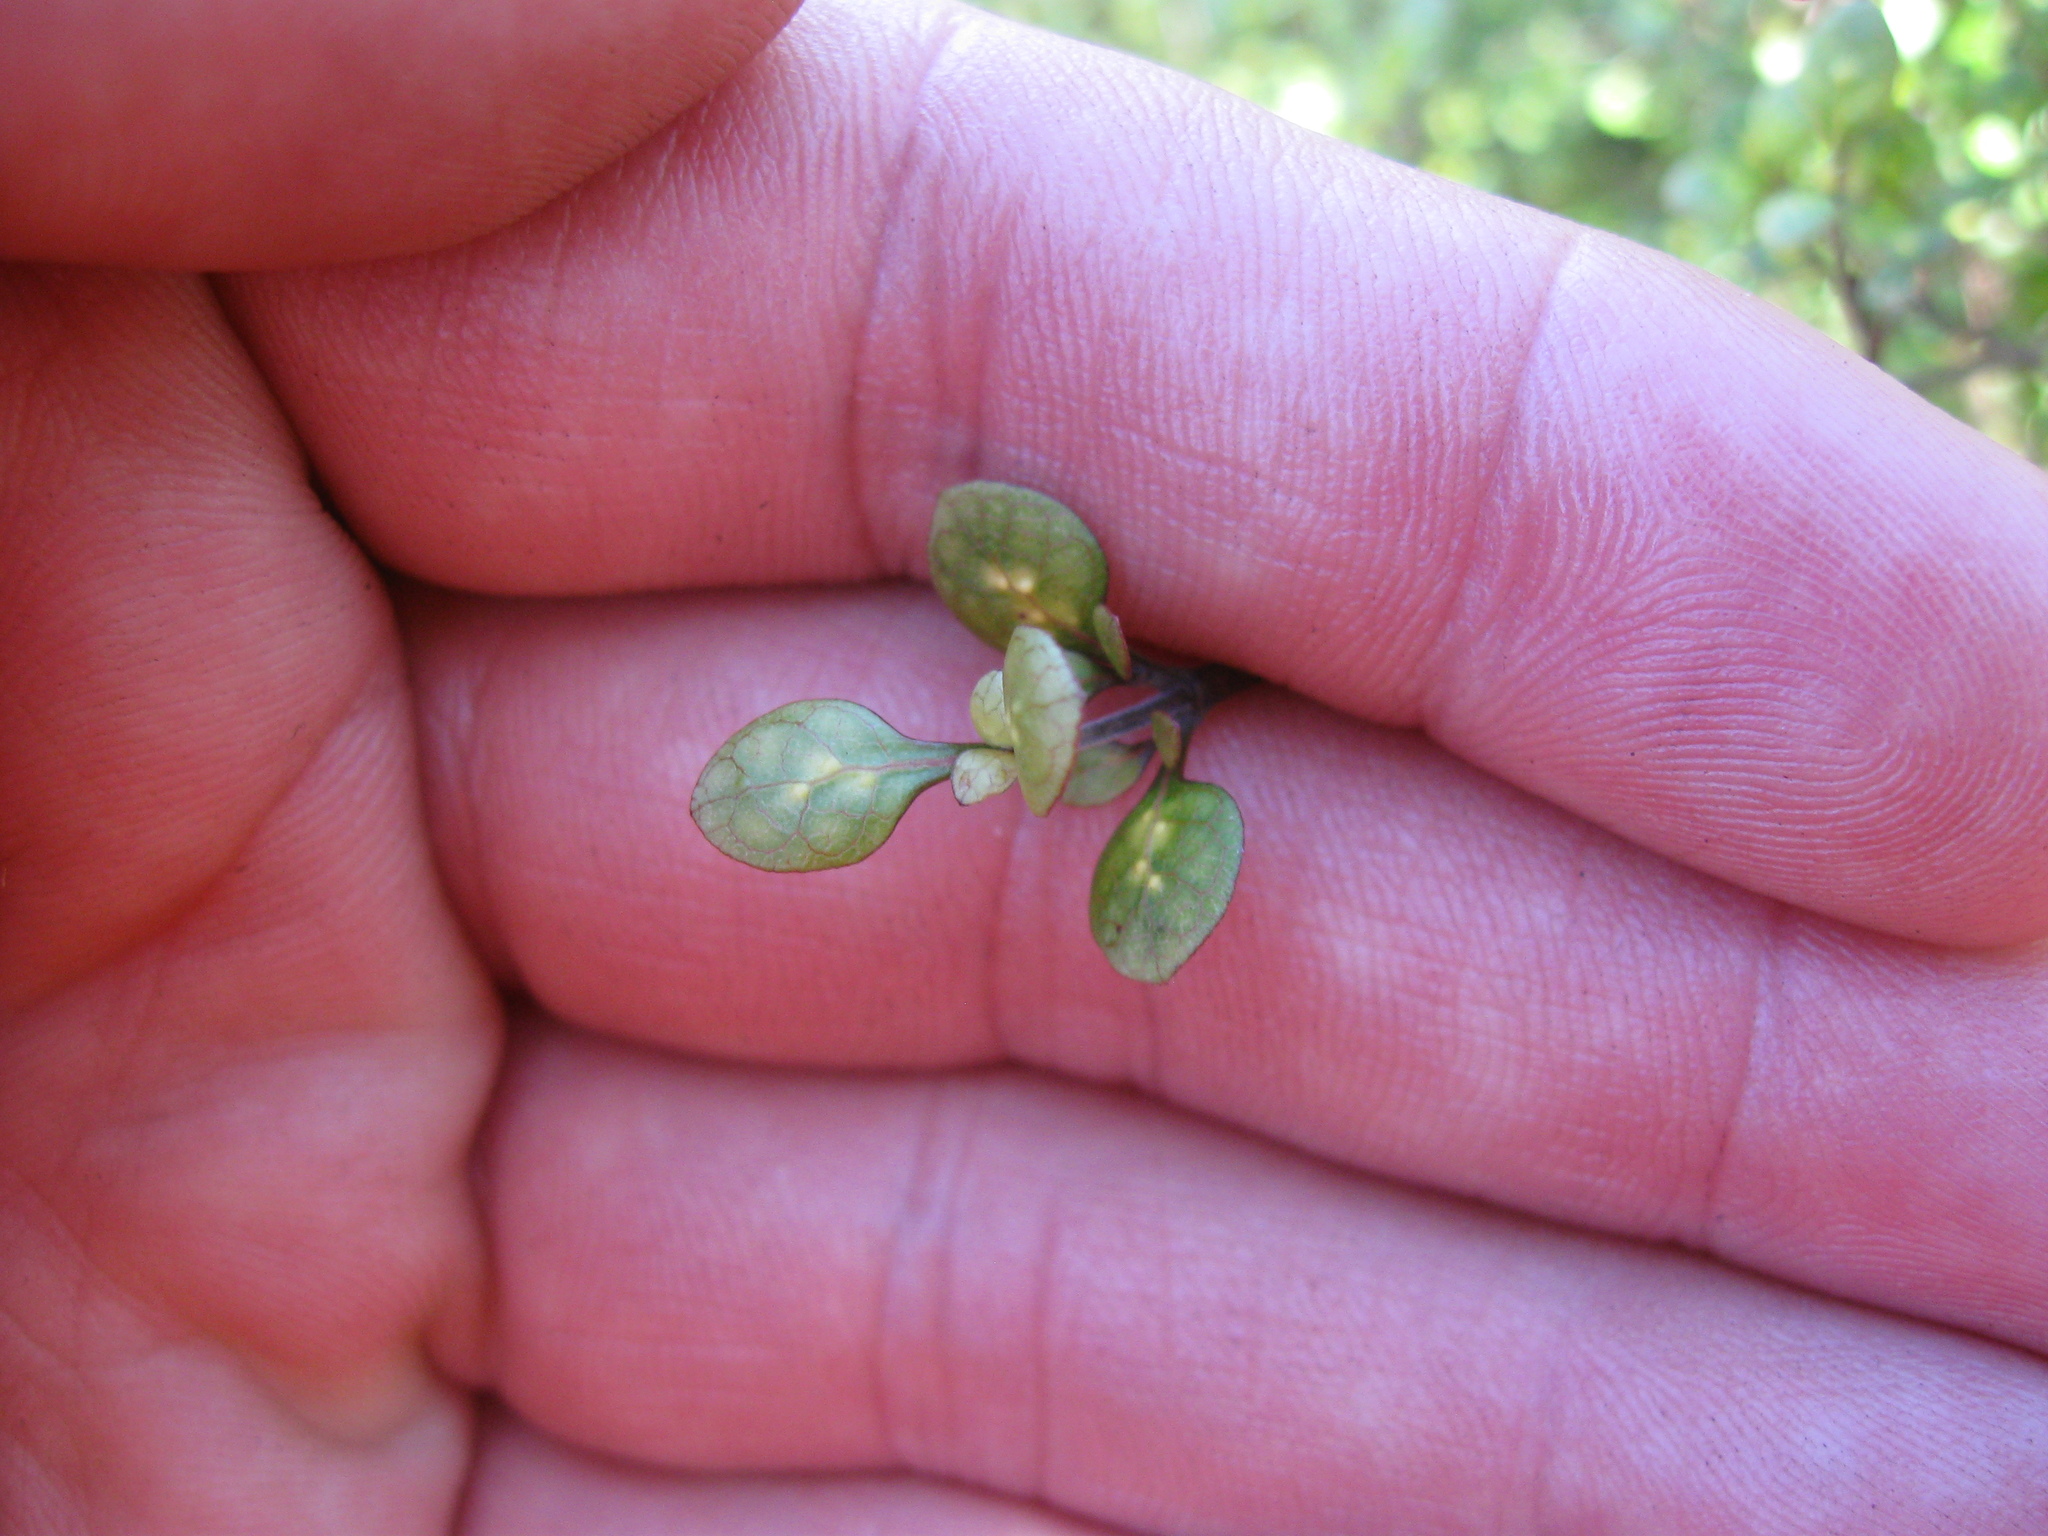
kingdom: Plantae
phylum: Tracheophyta
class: Magnoliopsida
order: Gentianales
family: Rubiaceae
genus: Coprosma
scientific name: Coprosma tenuicaulis
